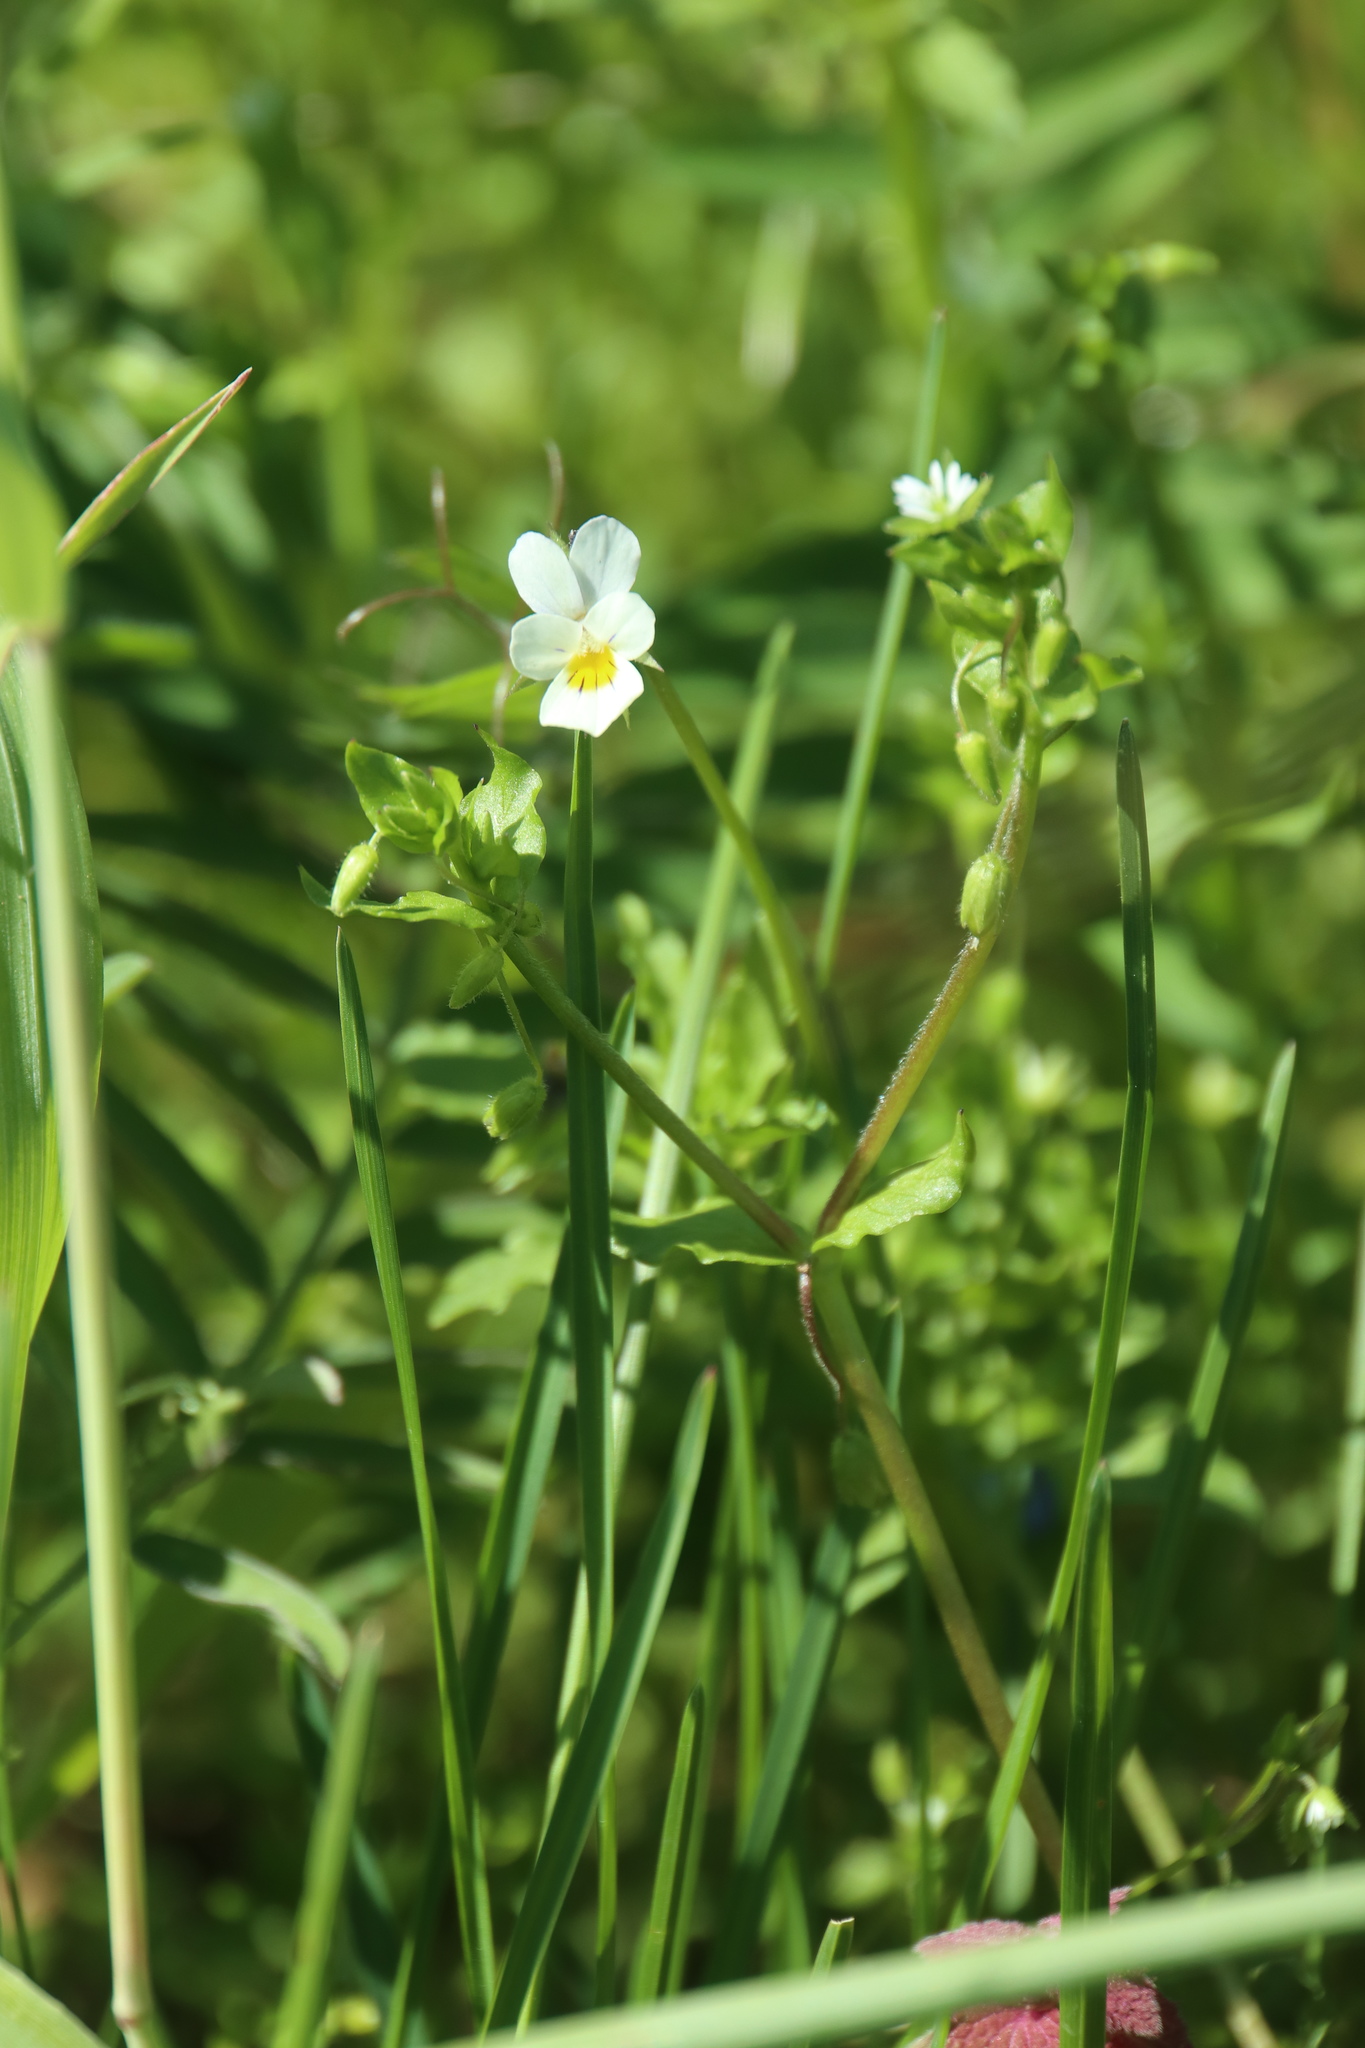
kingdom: Plantae
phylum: Tracheophyta
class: Magnoliopsida
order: Malpighiales
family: Violaceae
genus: Viola
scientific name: Viola arvensis
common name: Field pansy
